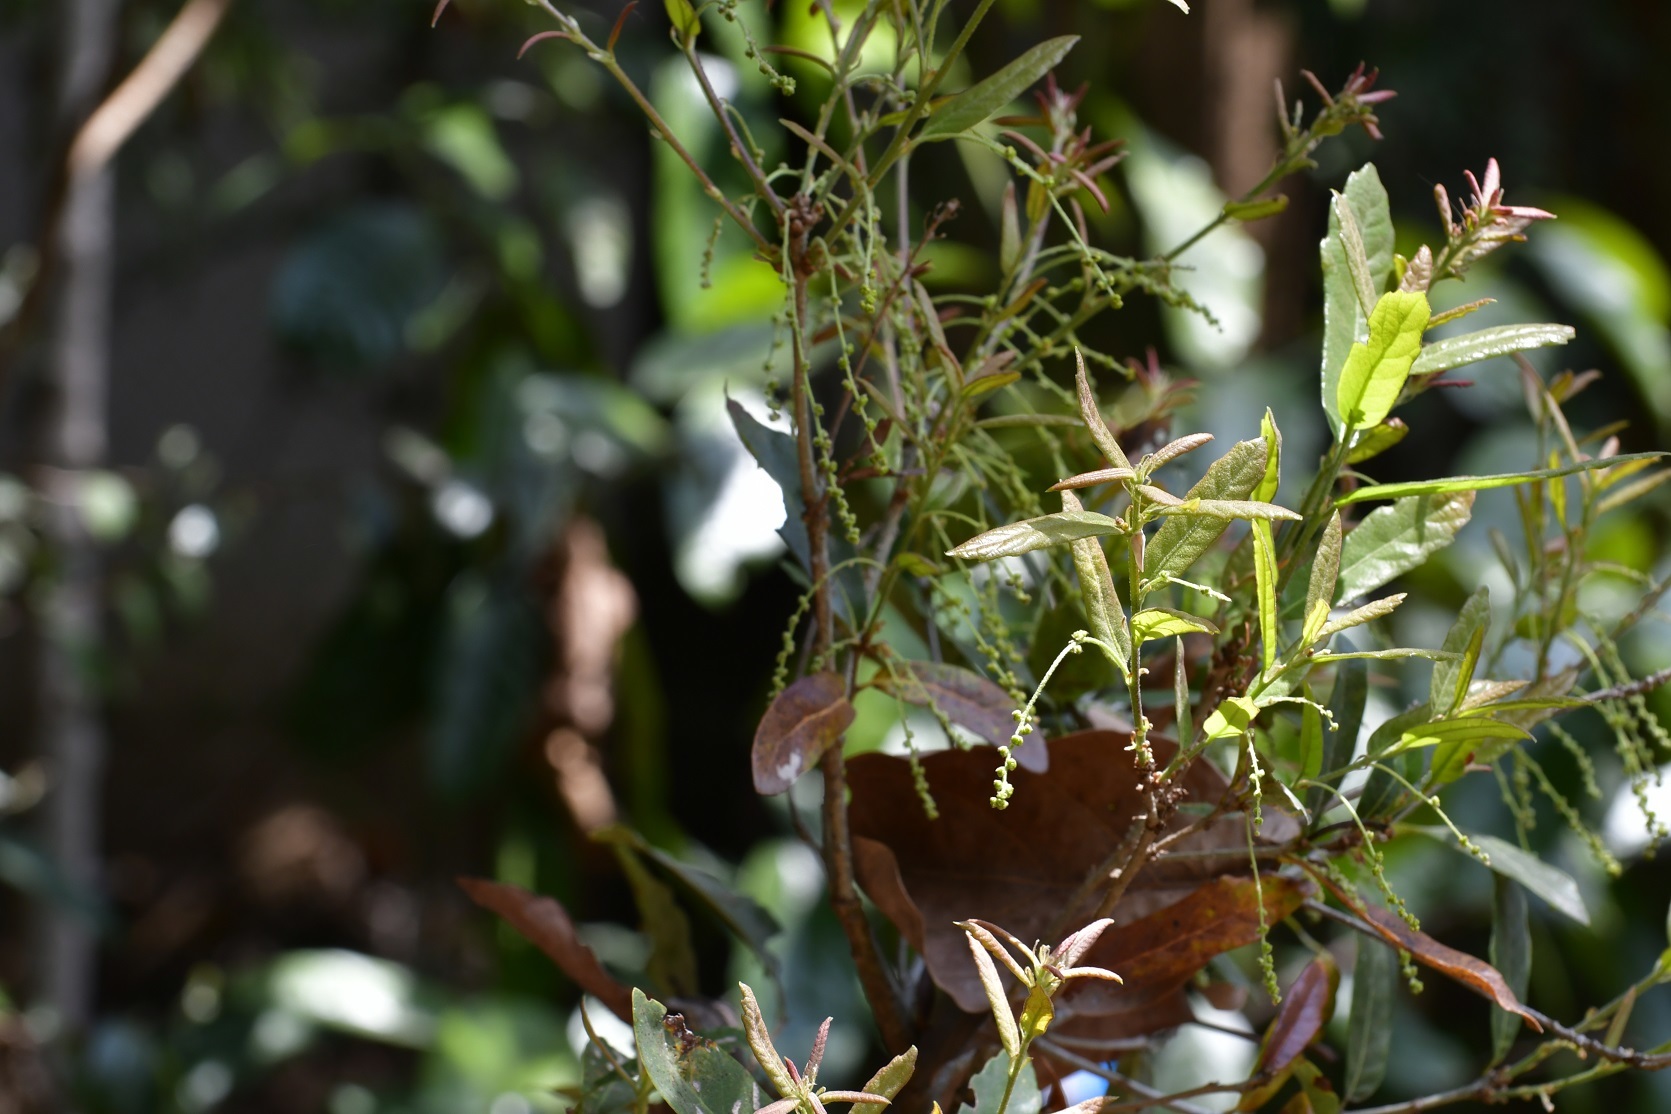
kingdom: Plantae
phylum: Tracheophyta
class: Magnoliopsida
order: Fagales
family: Fagaceae
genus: Quercus
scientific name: Quercus sebifera
